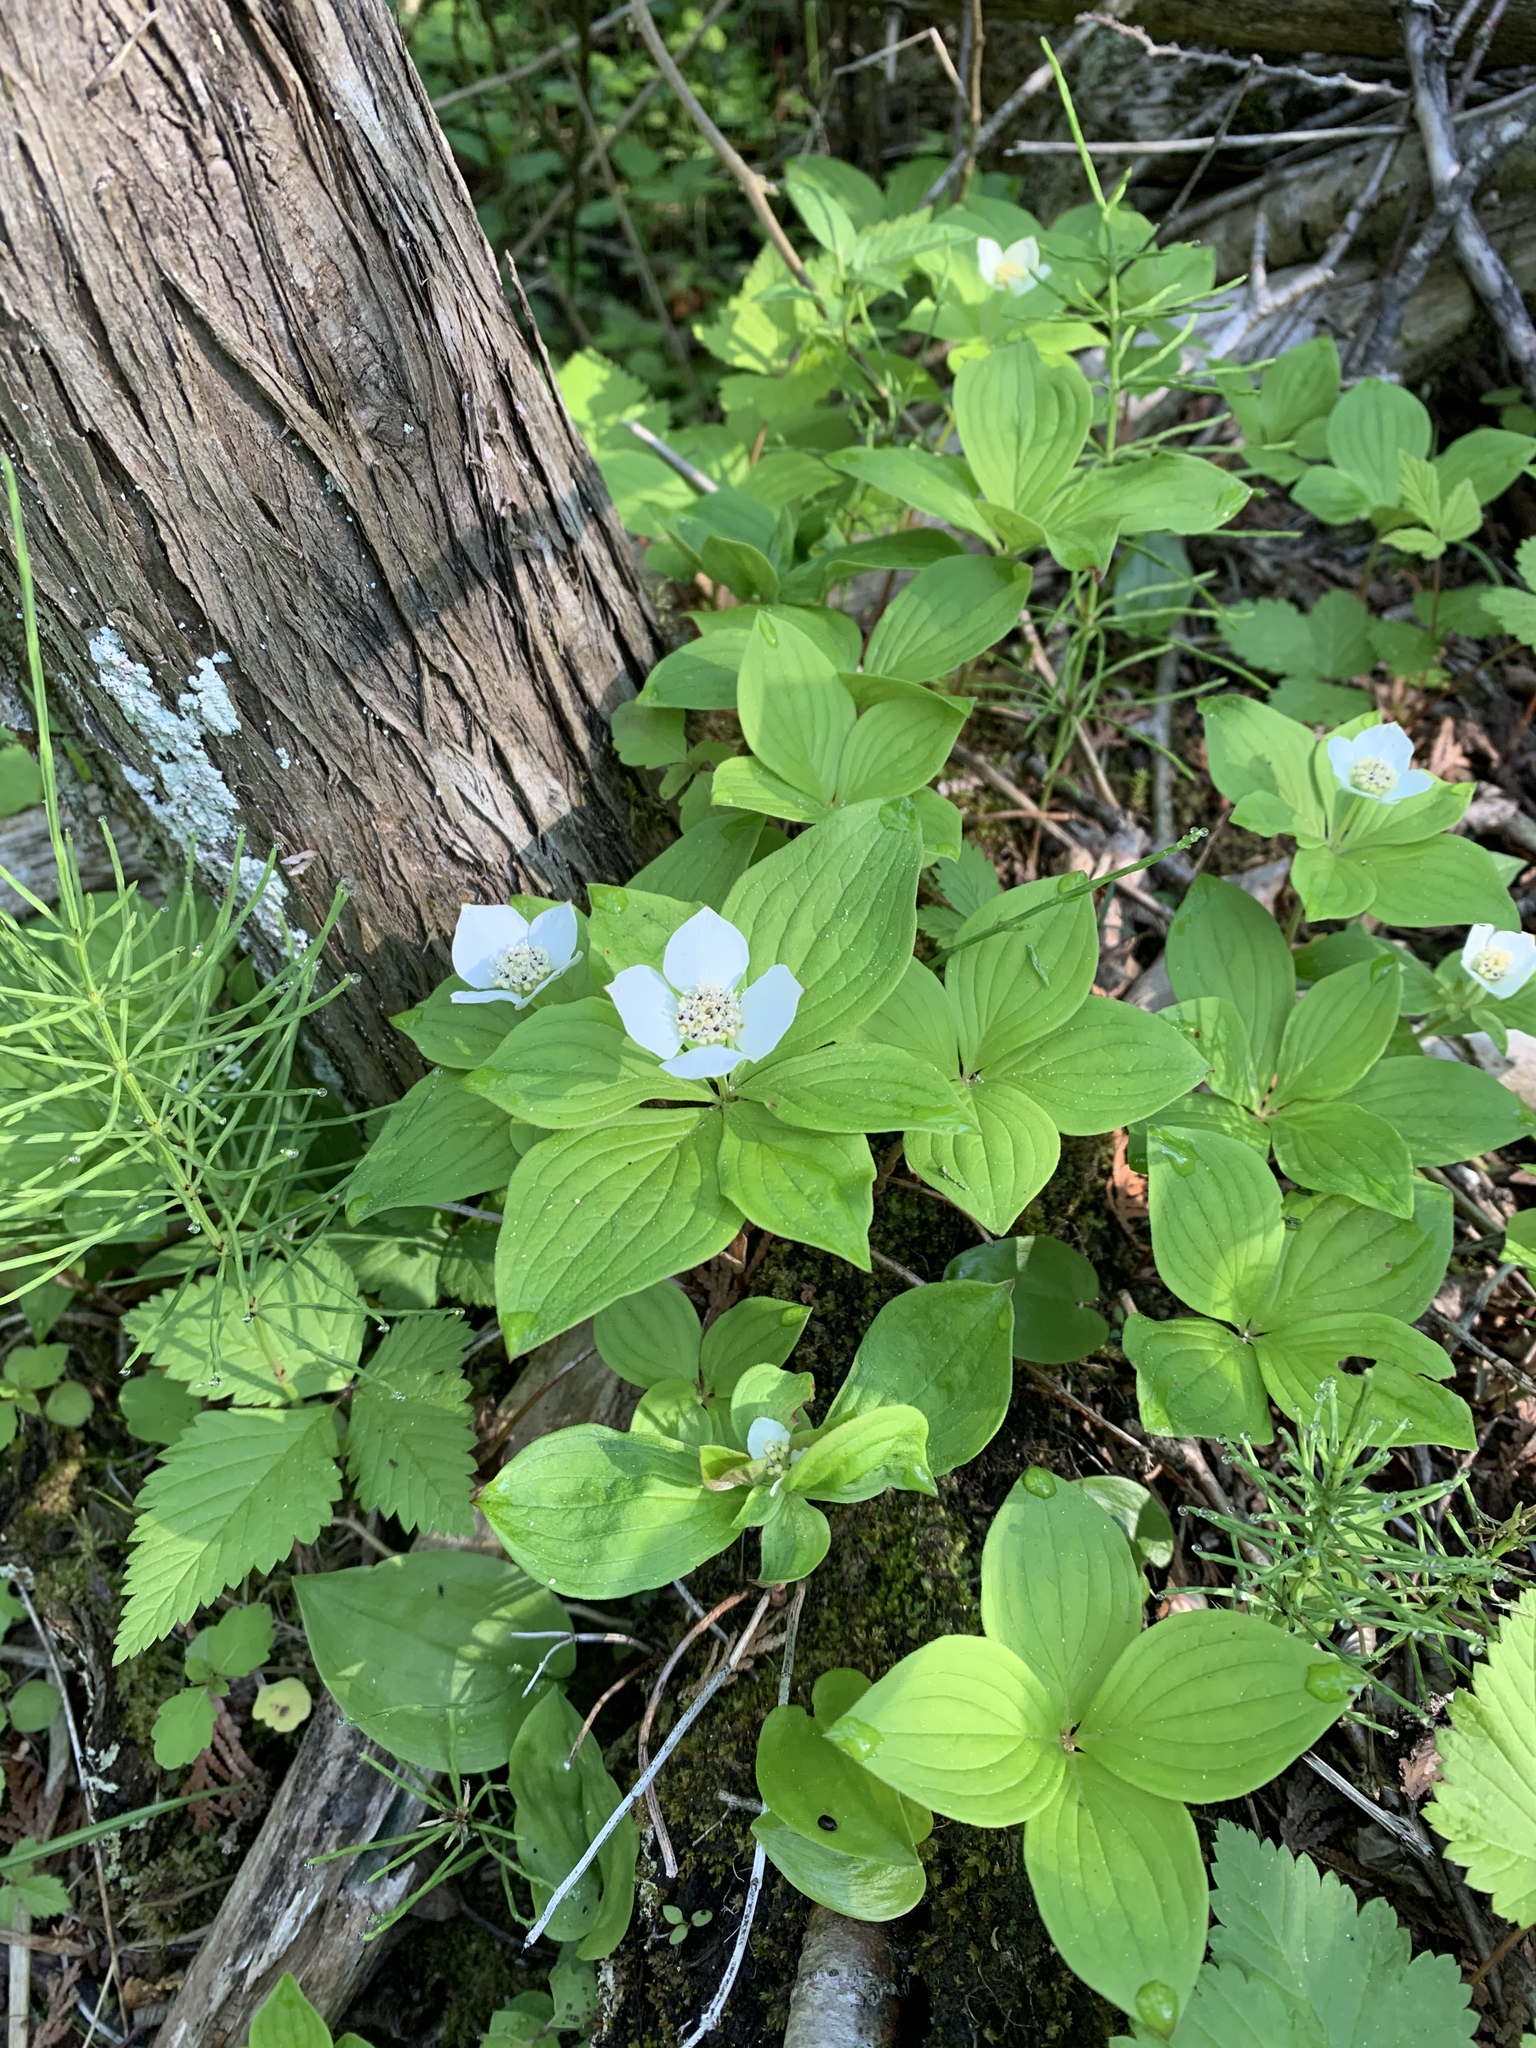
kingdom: Plantae
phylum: Tracheophyta
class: Magnoliopsida
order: Cornales
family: Cornaceae
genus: Cornus
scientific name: Cornus canadensis
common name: Creeping dogwood
